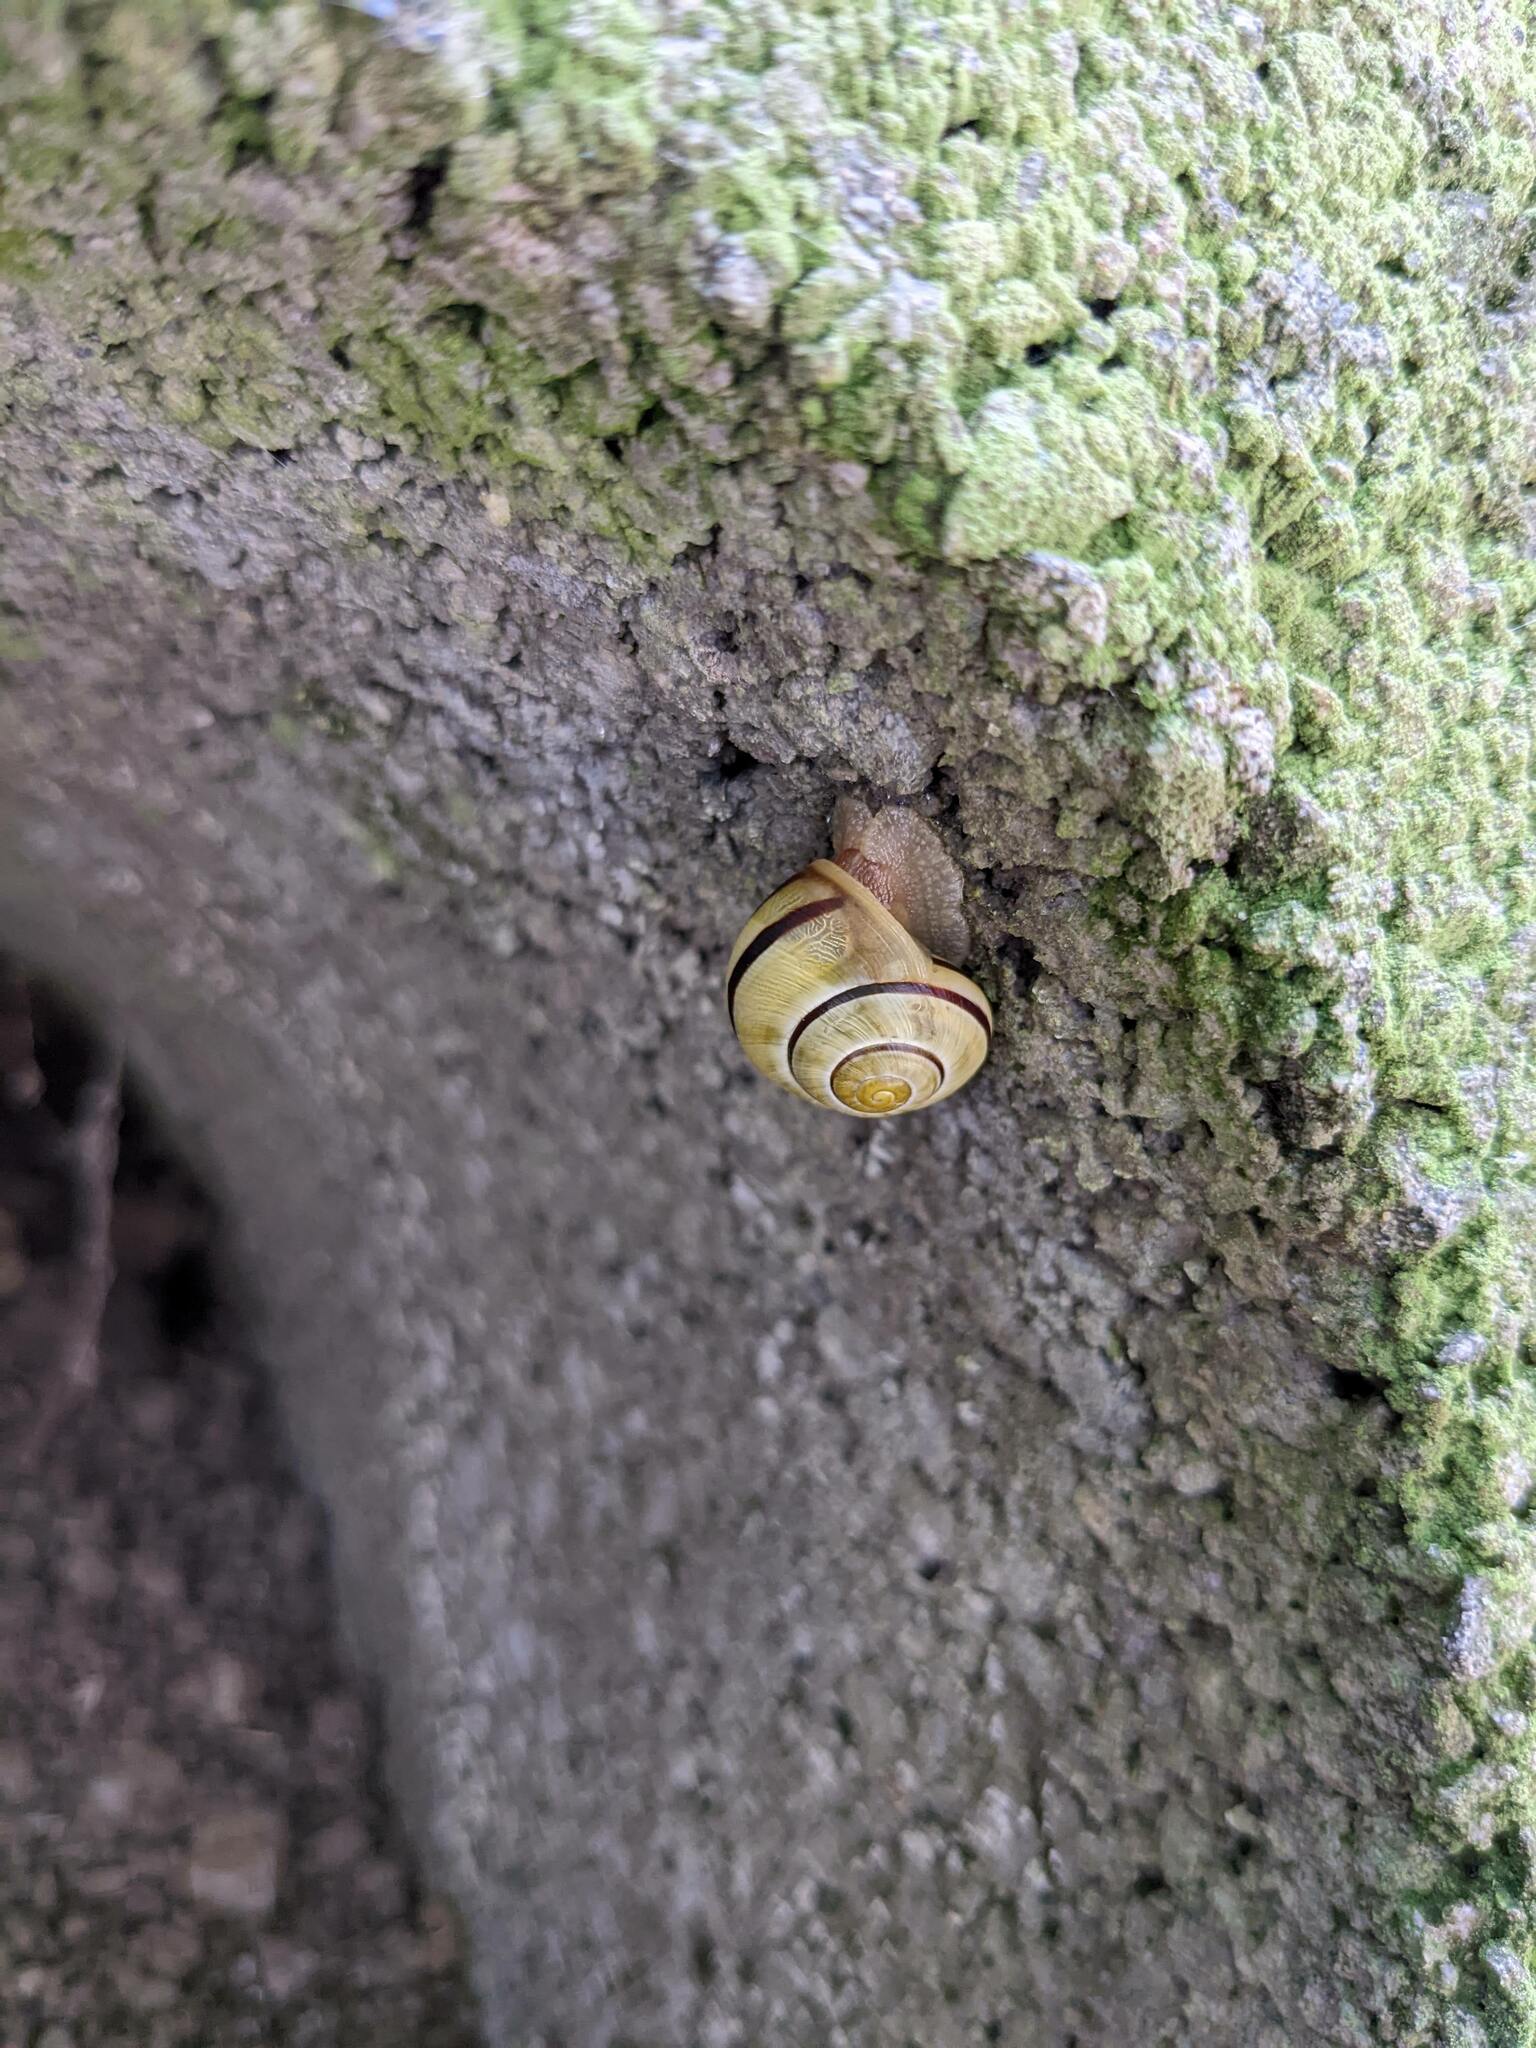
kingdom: Animalia
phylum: Mollusca
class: Gastropoda
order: Stylommatophora
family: Helicidae
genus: Cepaea
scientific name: Cepaea nemoralis
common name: Grovesnail
